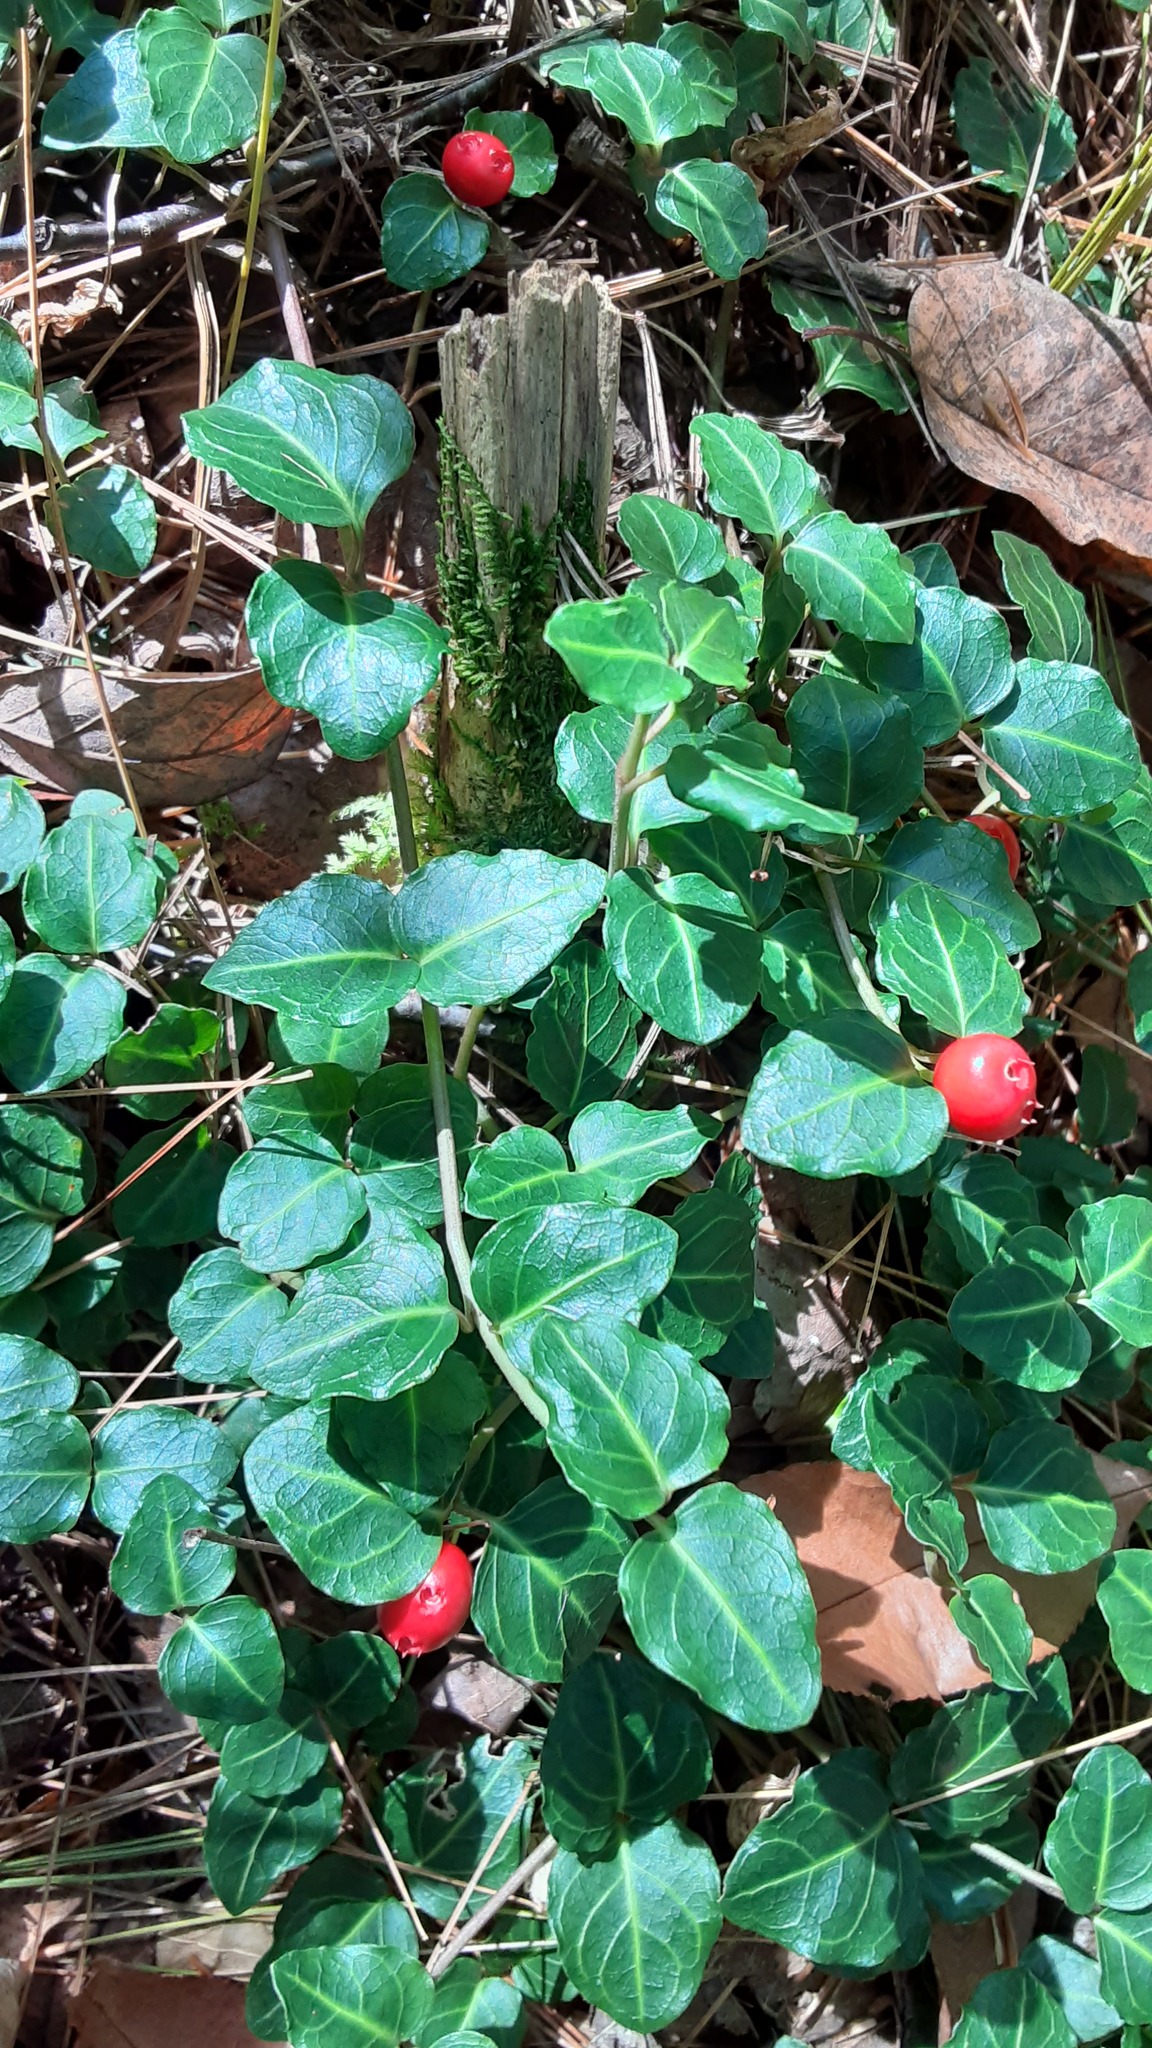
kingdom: Plantae
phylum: Tracheophyta
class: Magnoliopsida
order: Gentianales
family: Rubiaceae
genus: Mitchella
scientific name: Mitchella repens
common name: Partridge-berry
